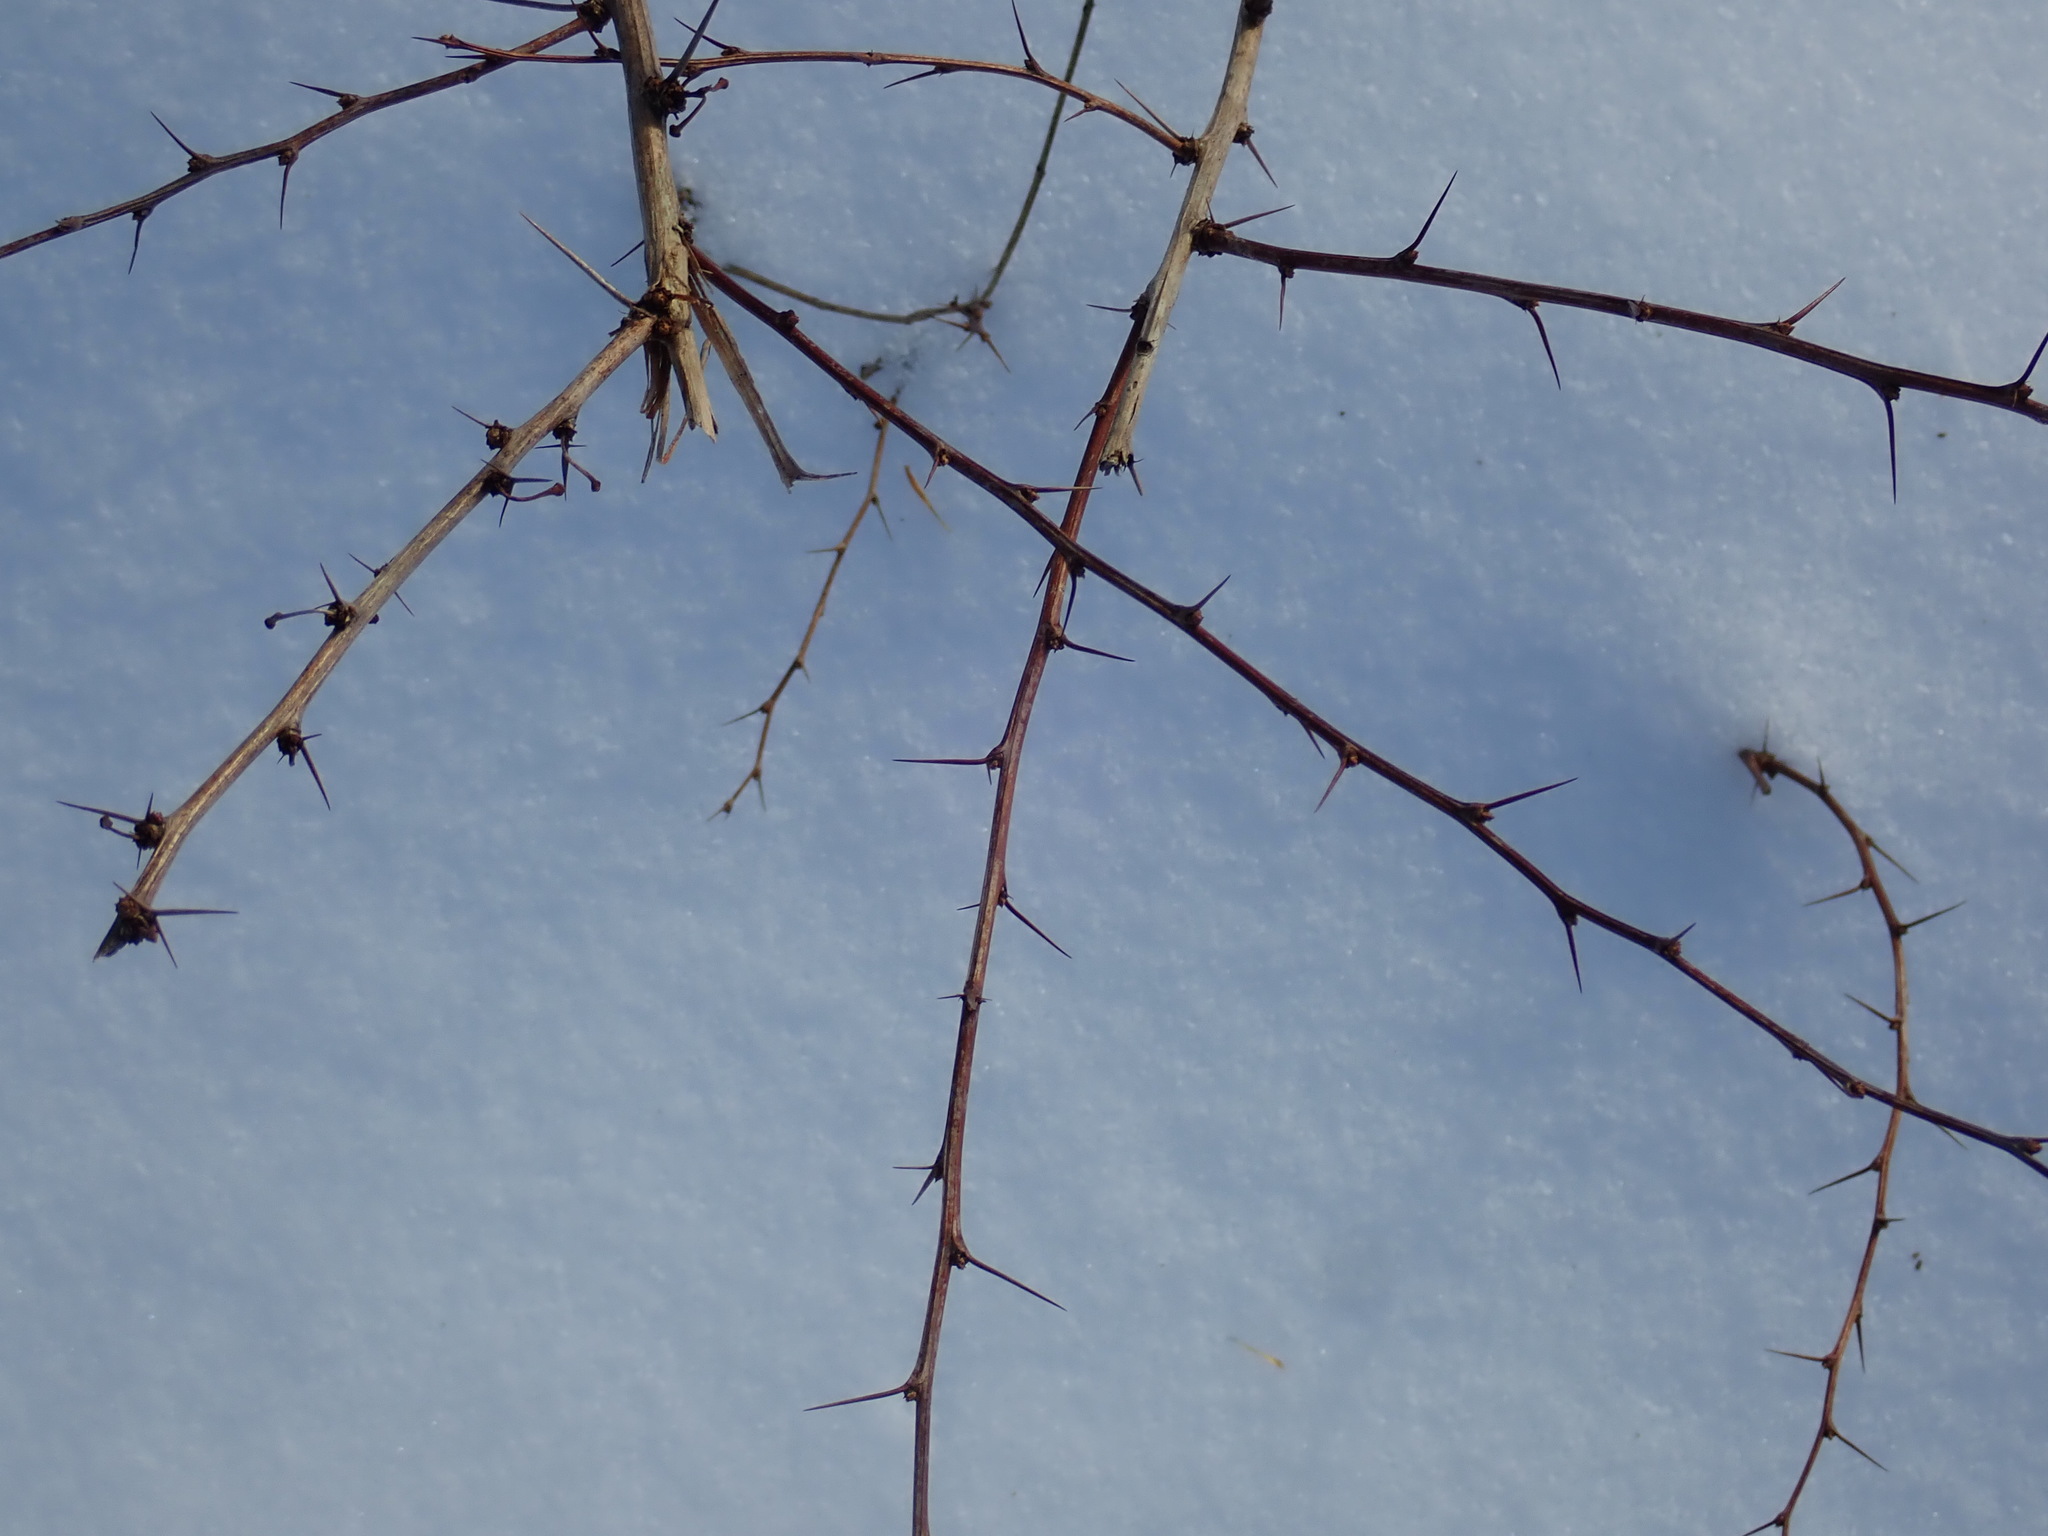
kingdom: Plantae
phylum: Tracheophyta
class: Magnoliopsida
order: Ranunculales
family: Berberidaceae
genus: Berberis
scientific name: Berberis thunbergii
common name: Japanese barberry
